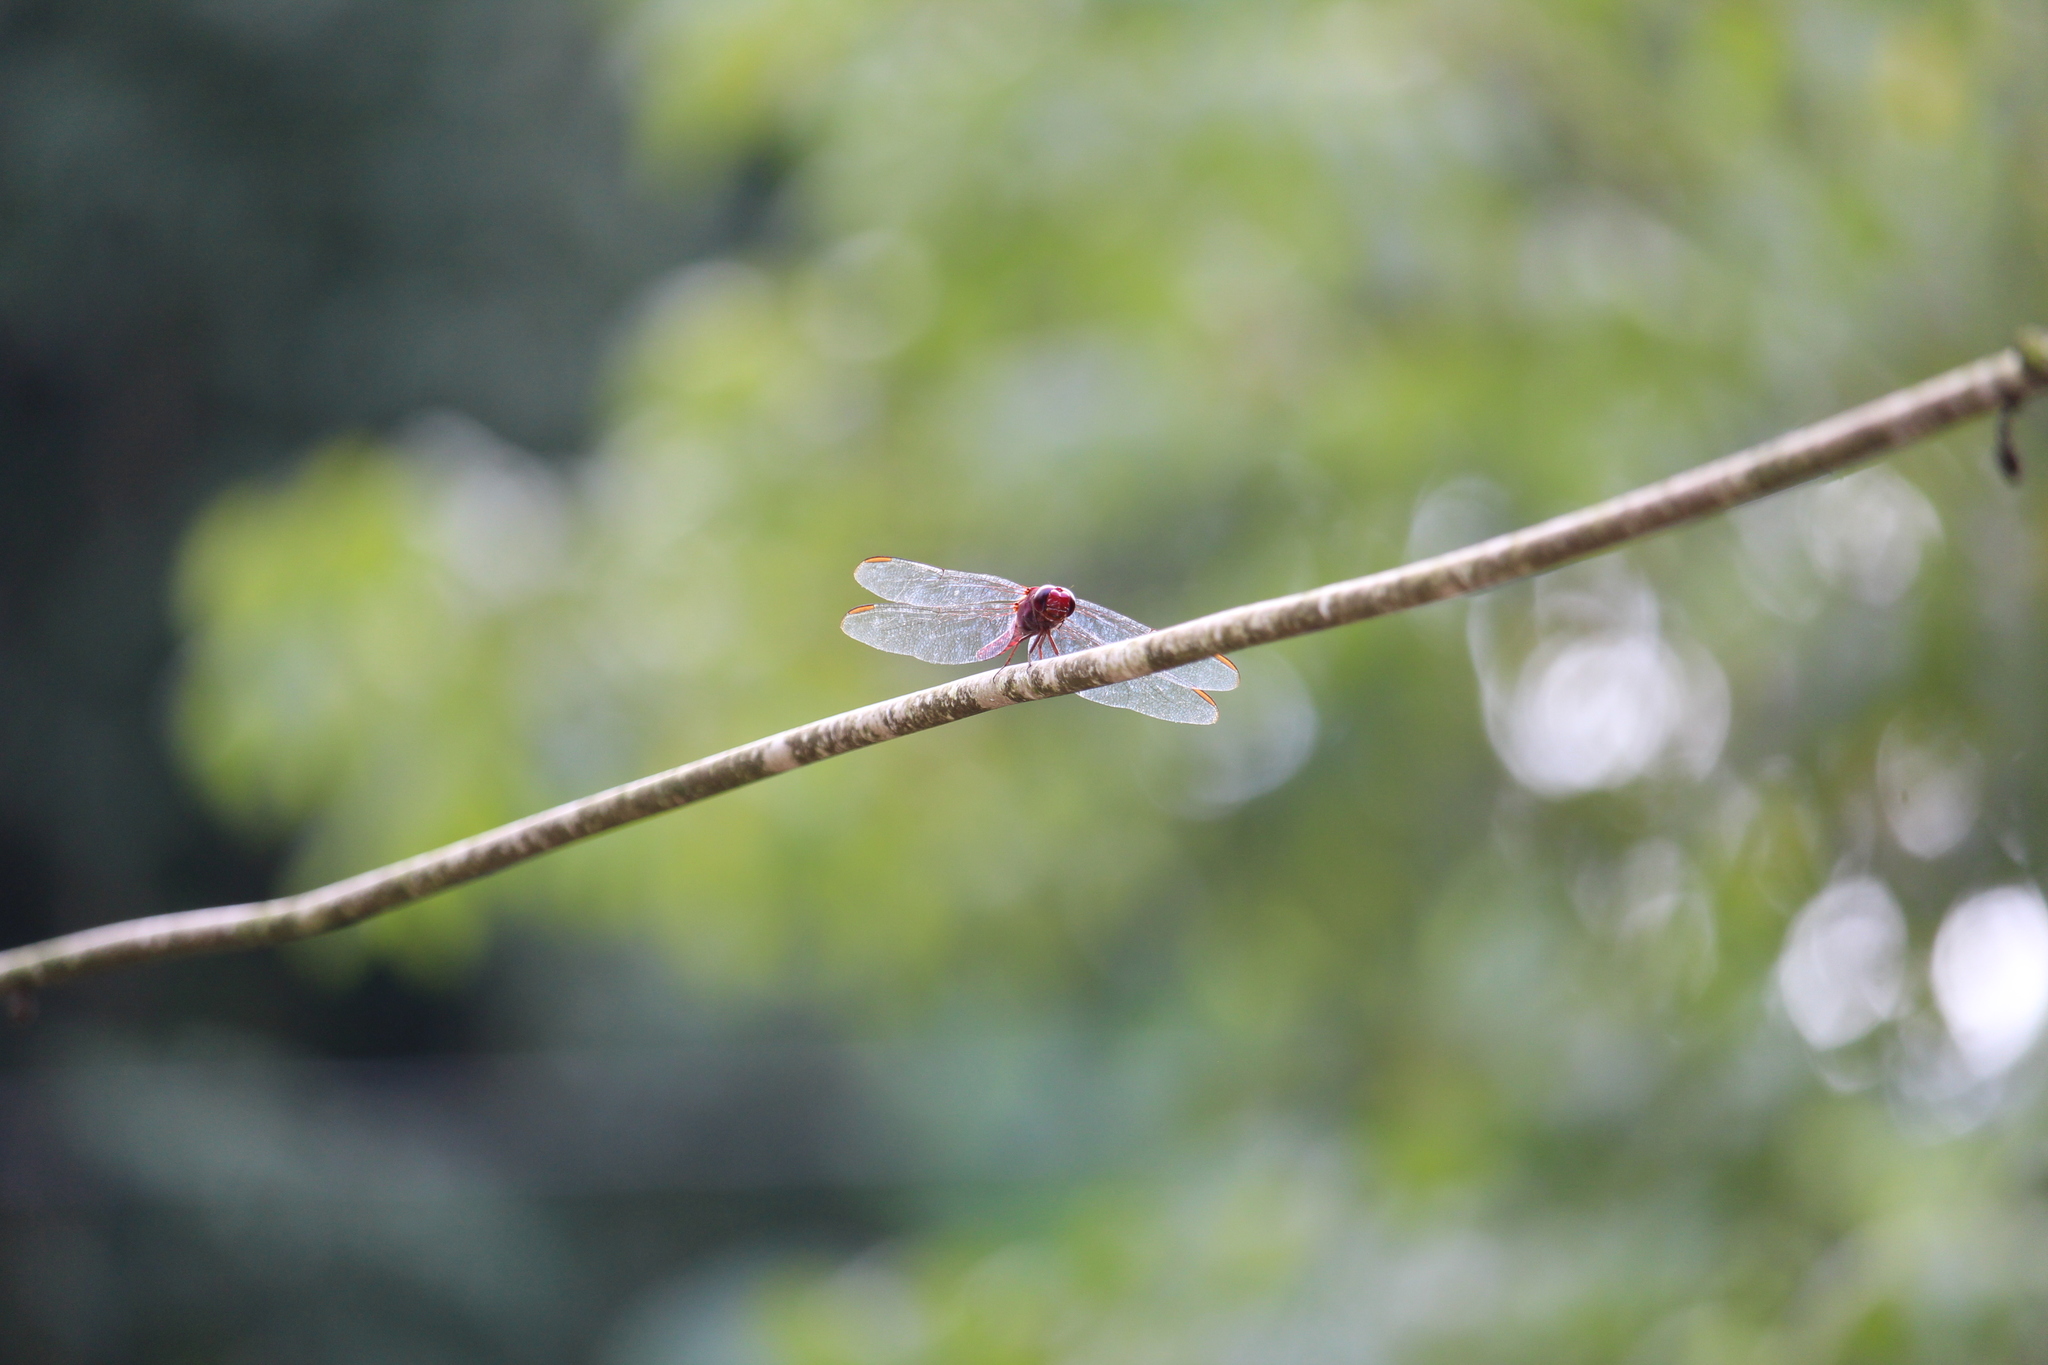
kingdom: Animalia
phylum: Arthropoda
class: Insecta
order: Odonata
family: Libellulidae
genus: Orthemis
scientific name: Orthemis discolor
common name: Carmine skimmer
